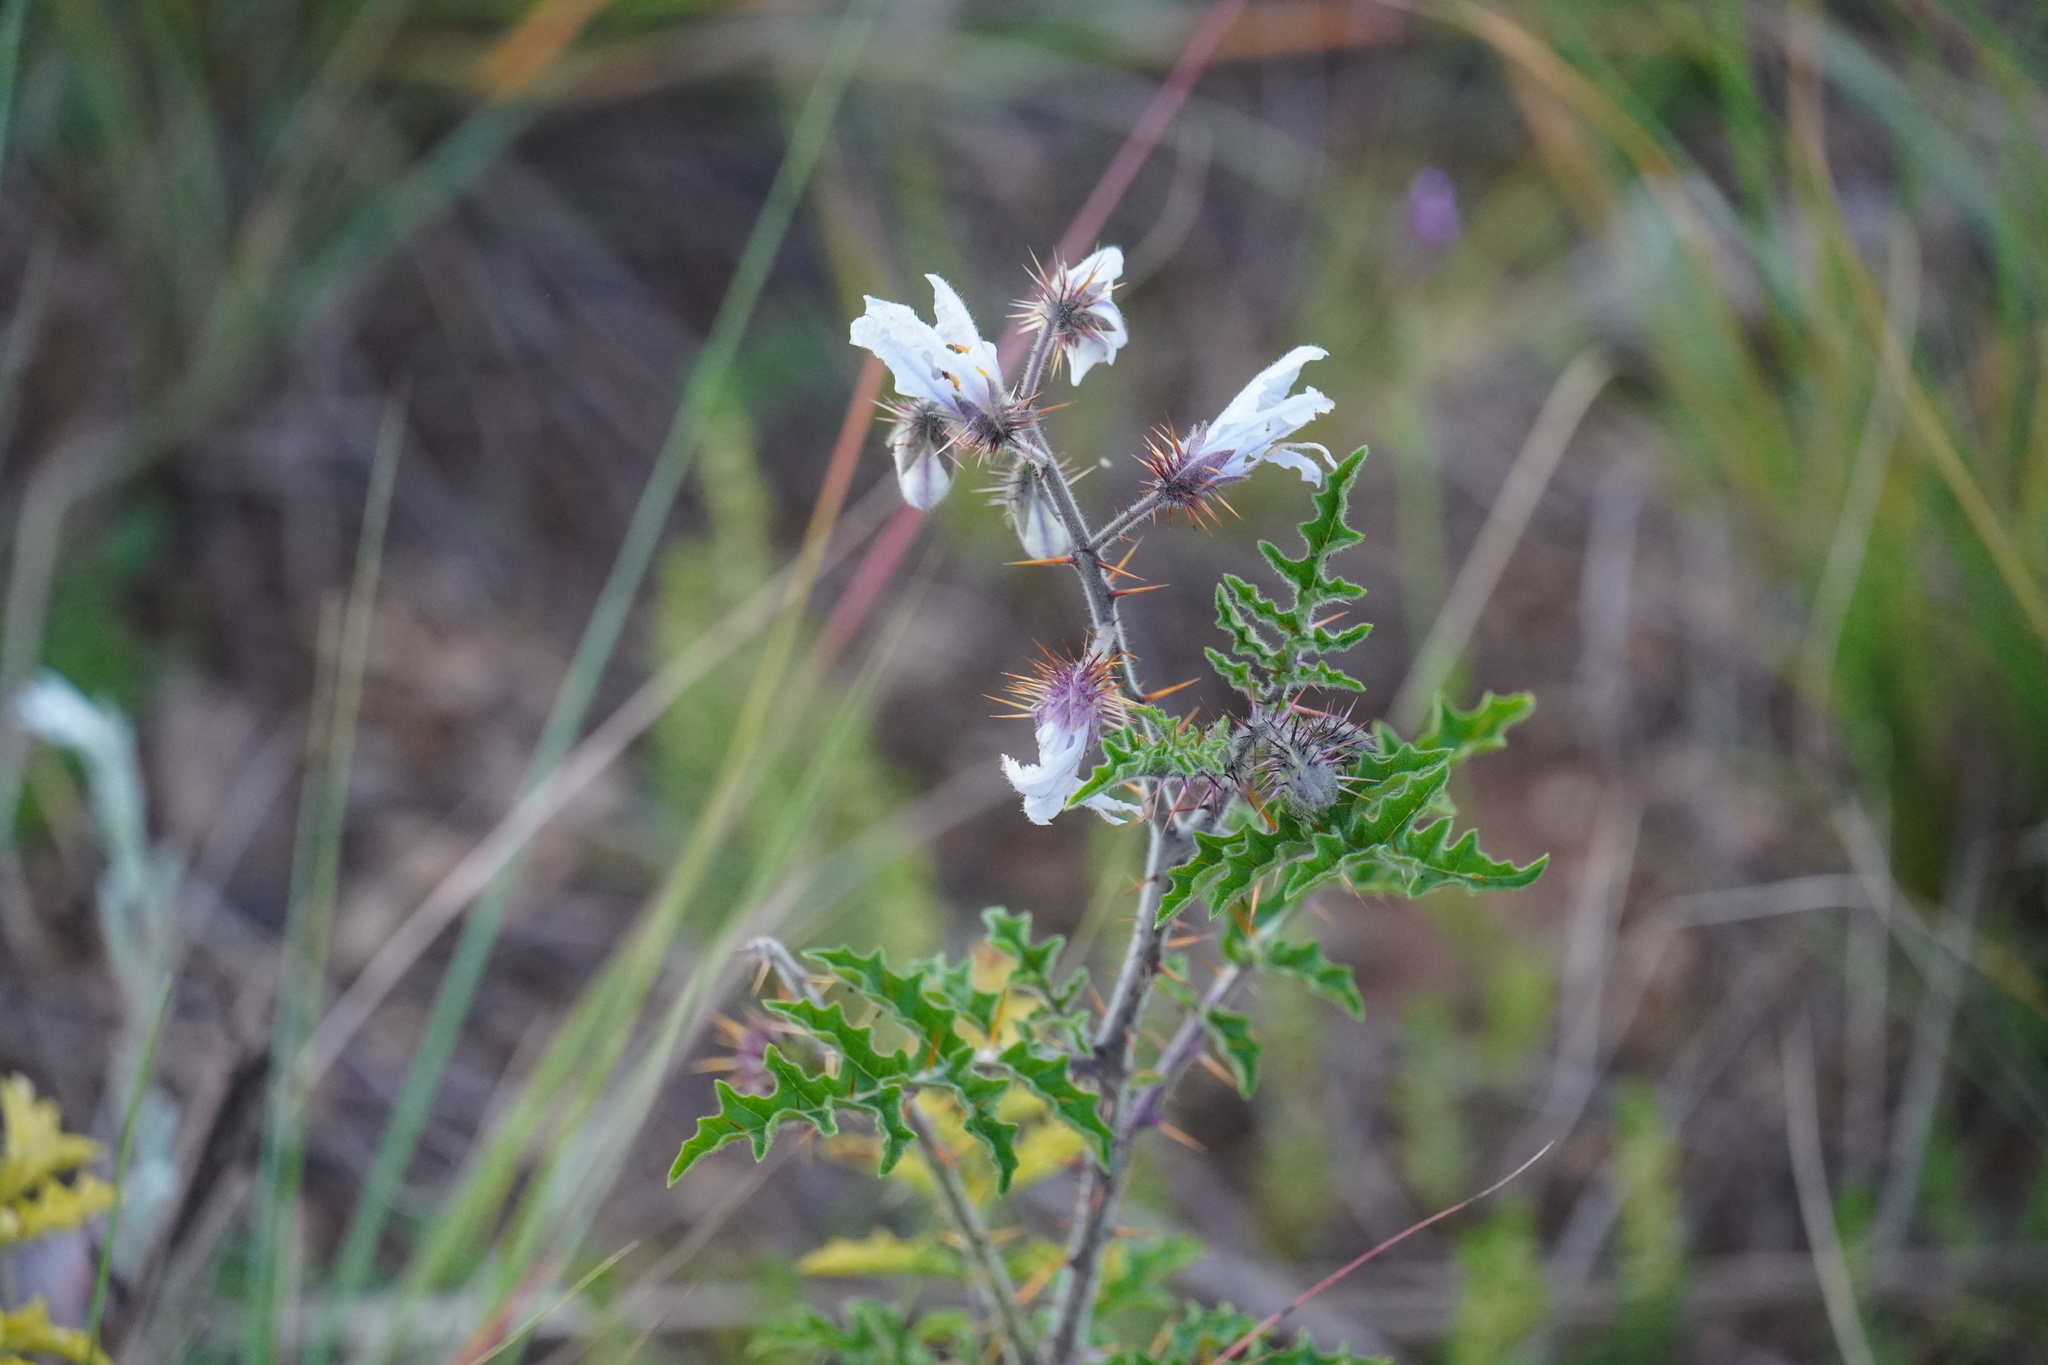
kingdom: Plantae
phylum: Tracheophyta
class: Magnoliopsida
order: Solanales
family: Solanaceae
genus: Solanum
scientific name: Solanum sisymbriifolium
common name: Red buffalo-bur
